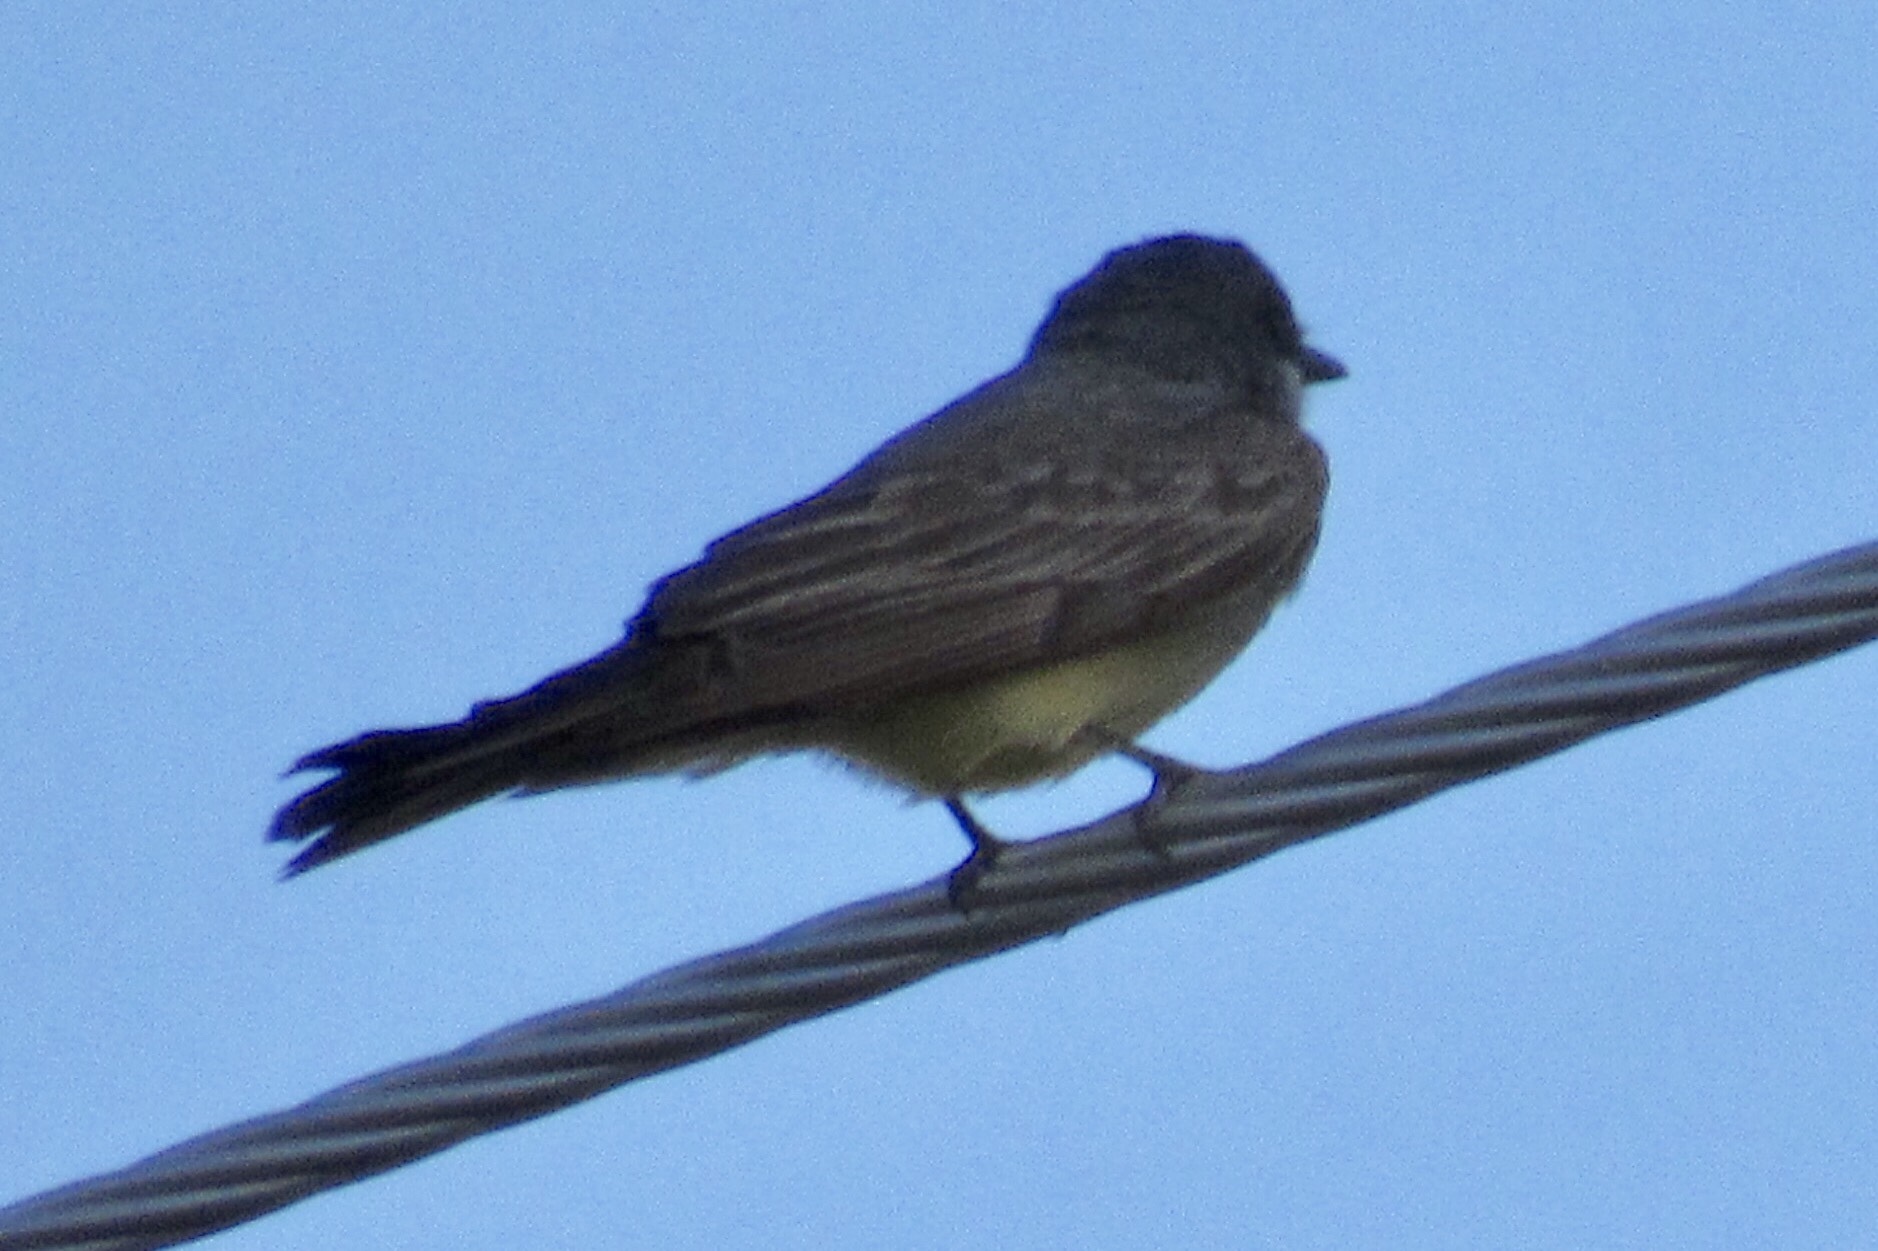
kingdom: Animalia
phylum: Chordata
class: Aves
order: Passeriformes
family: Tyrannidae
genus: Tyrannus
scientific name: Tyrannus vociferans
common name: Cassin's kingbird
